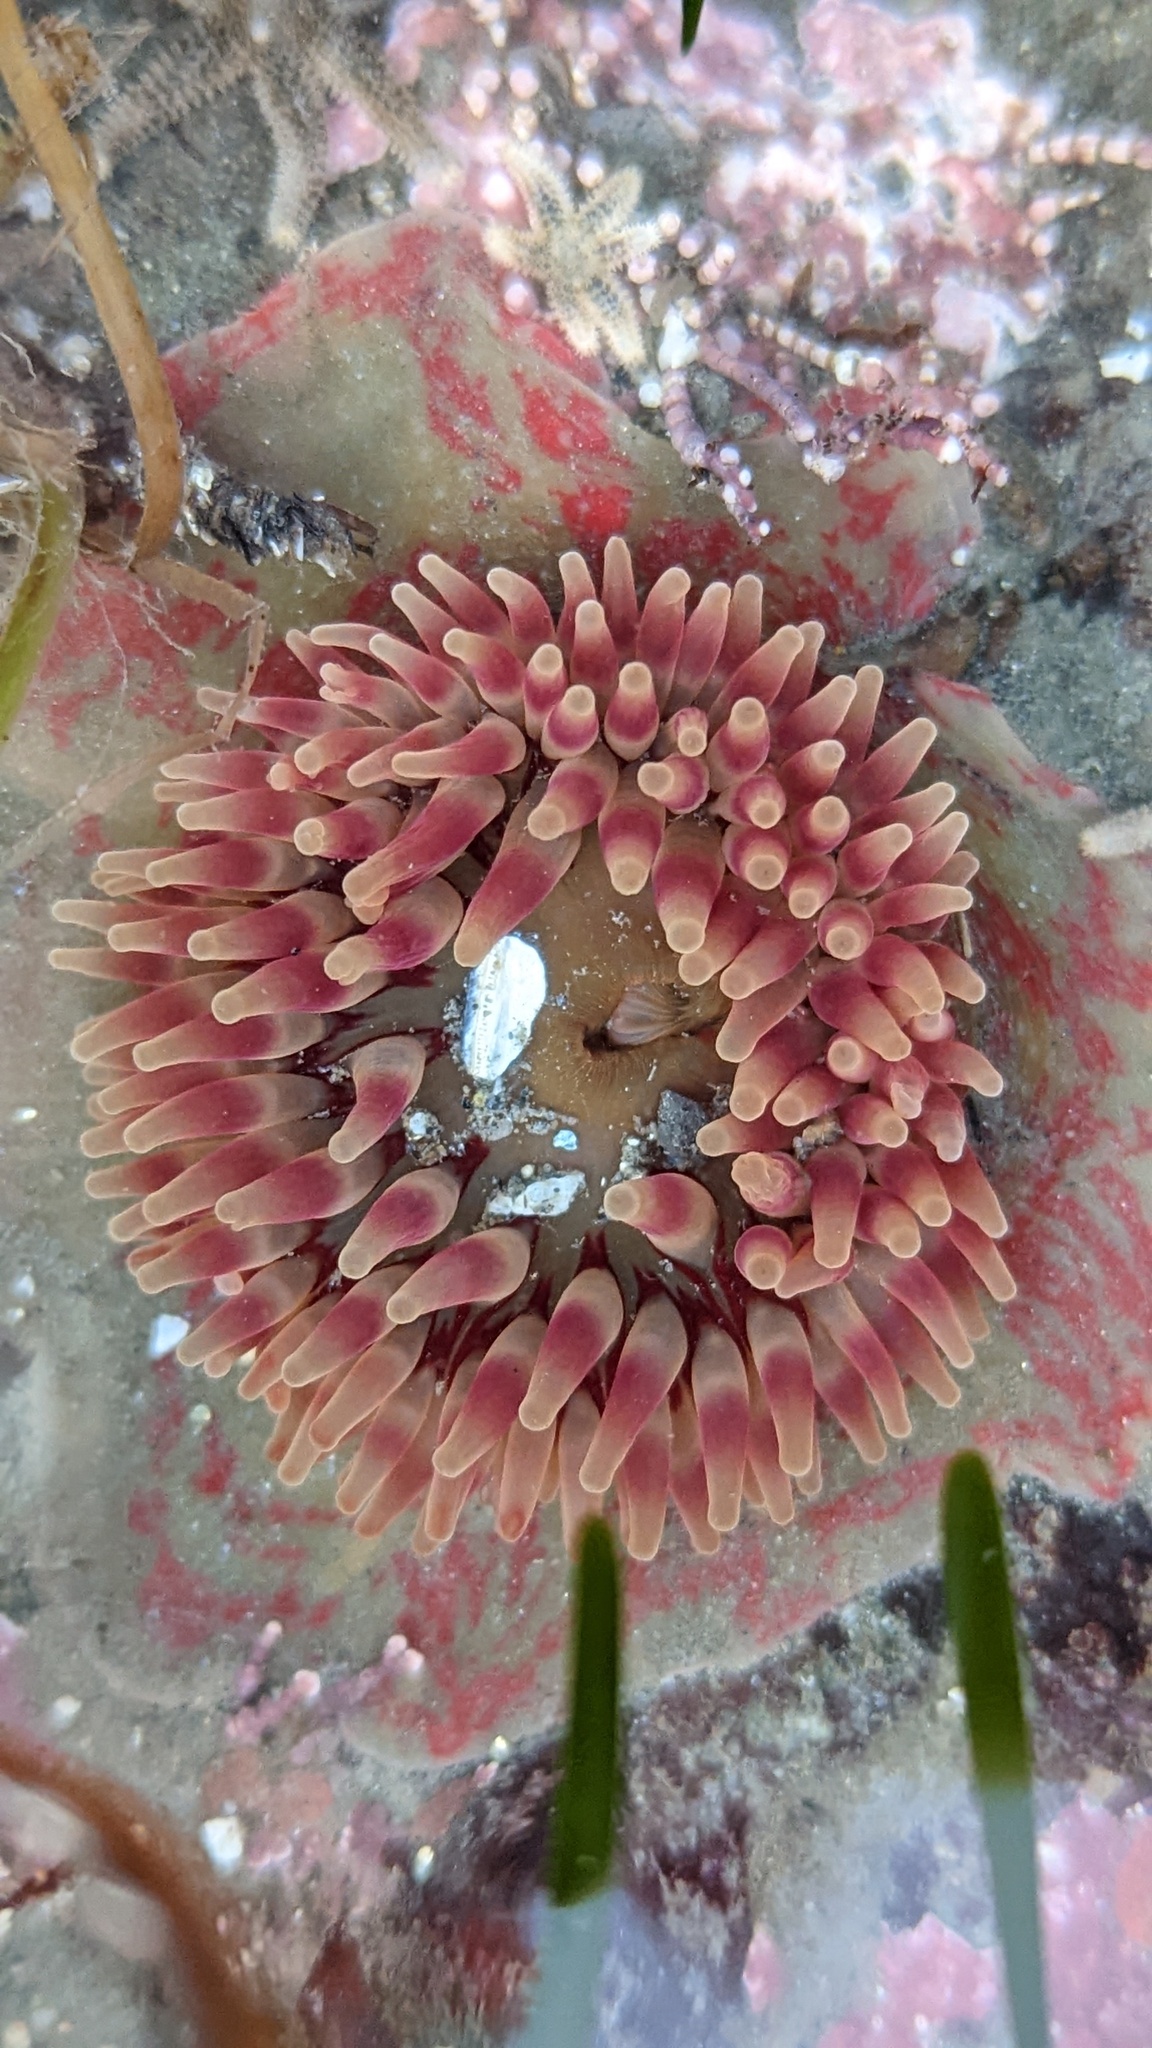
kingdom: Animalia
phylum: Cnidaria
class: Anthozoa
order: Actiniaria
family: Actiniidae
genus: Urticina
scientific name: Urticina grebelnyi
